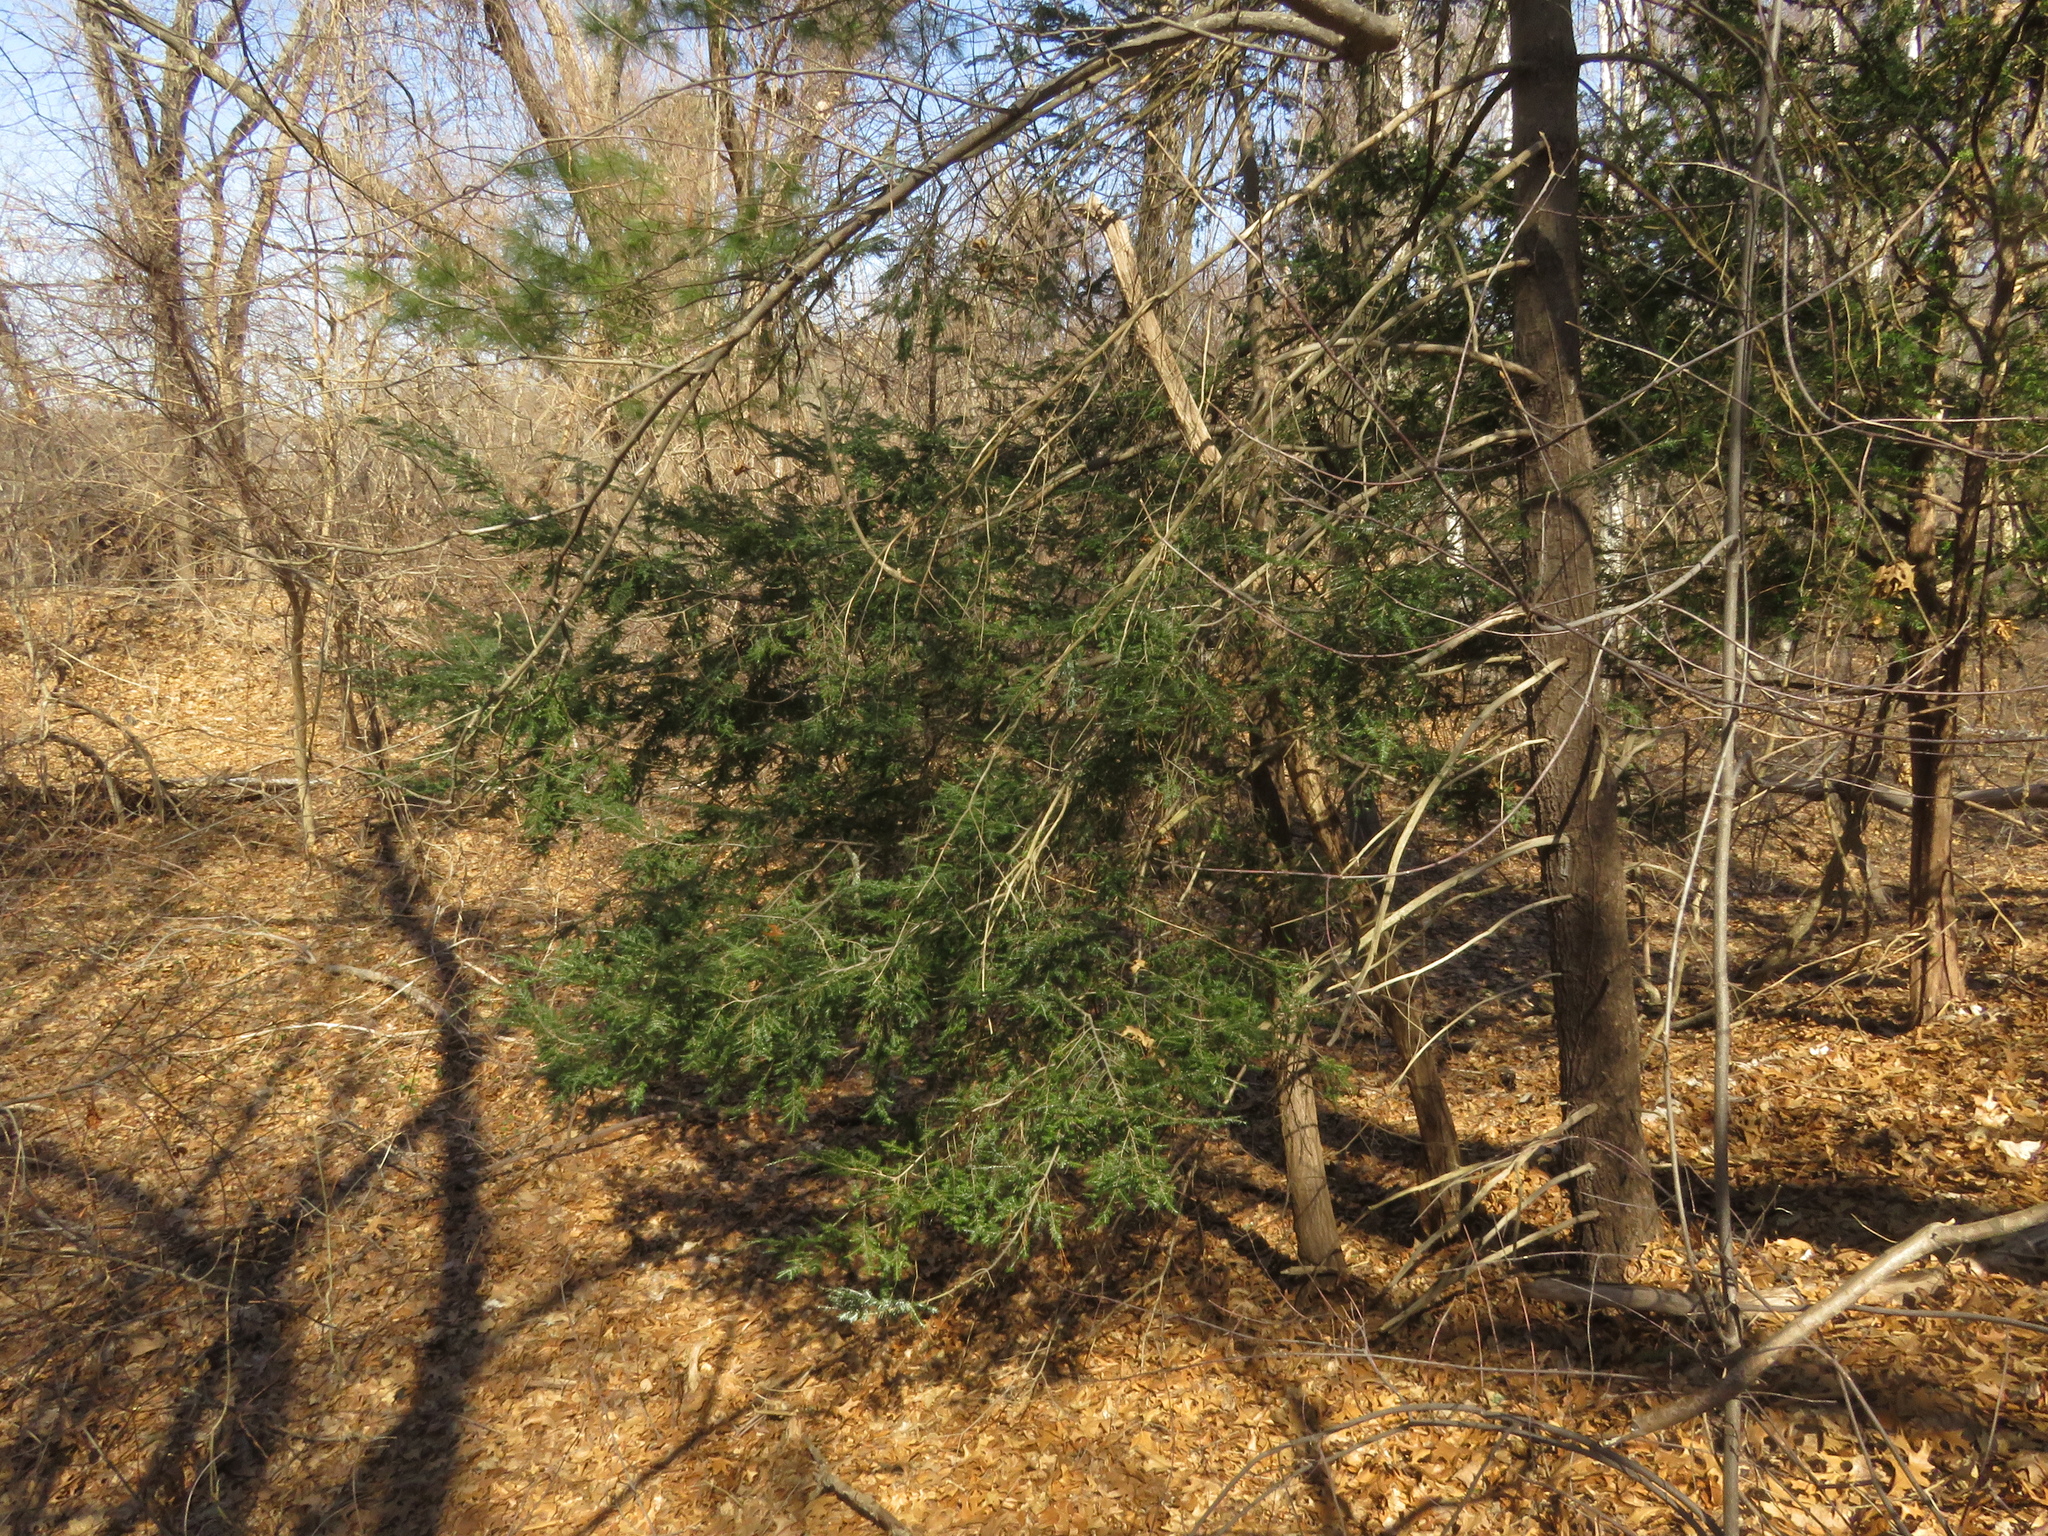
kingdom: Plantae
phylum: Tracheophyta
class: Pinopsida
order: Pinales
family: Pinaceae
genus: Tsuga
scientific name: Tsuga canadensis
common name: Eastern hemlock
